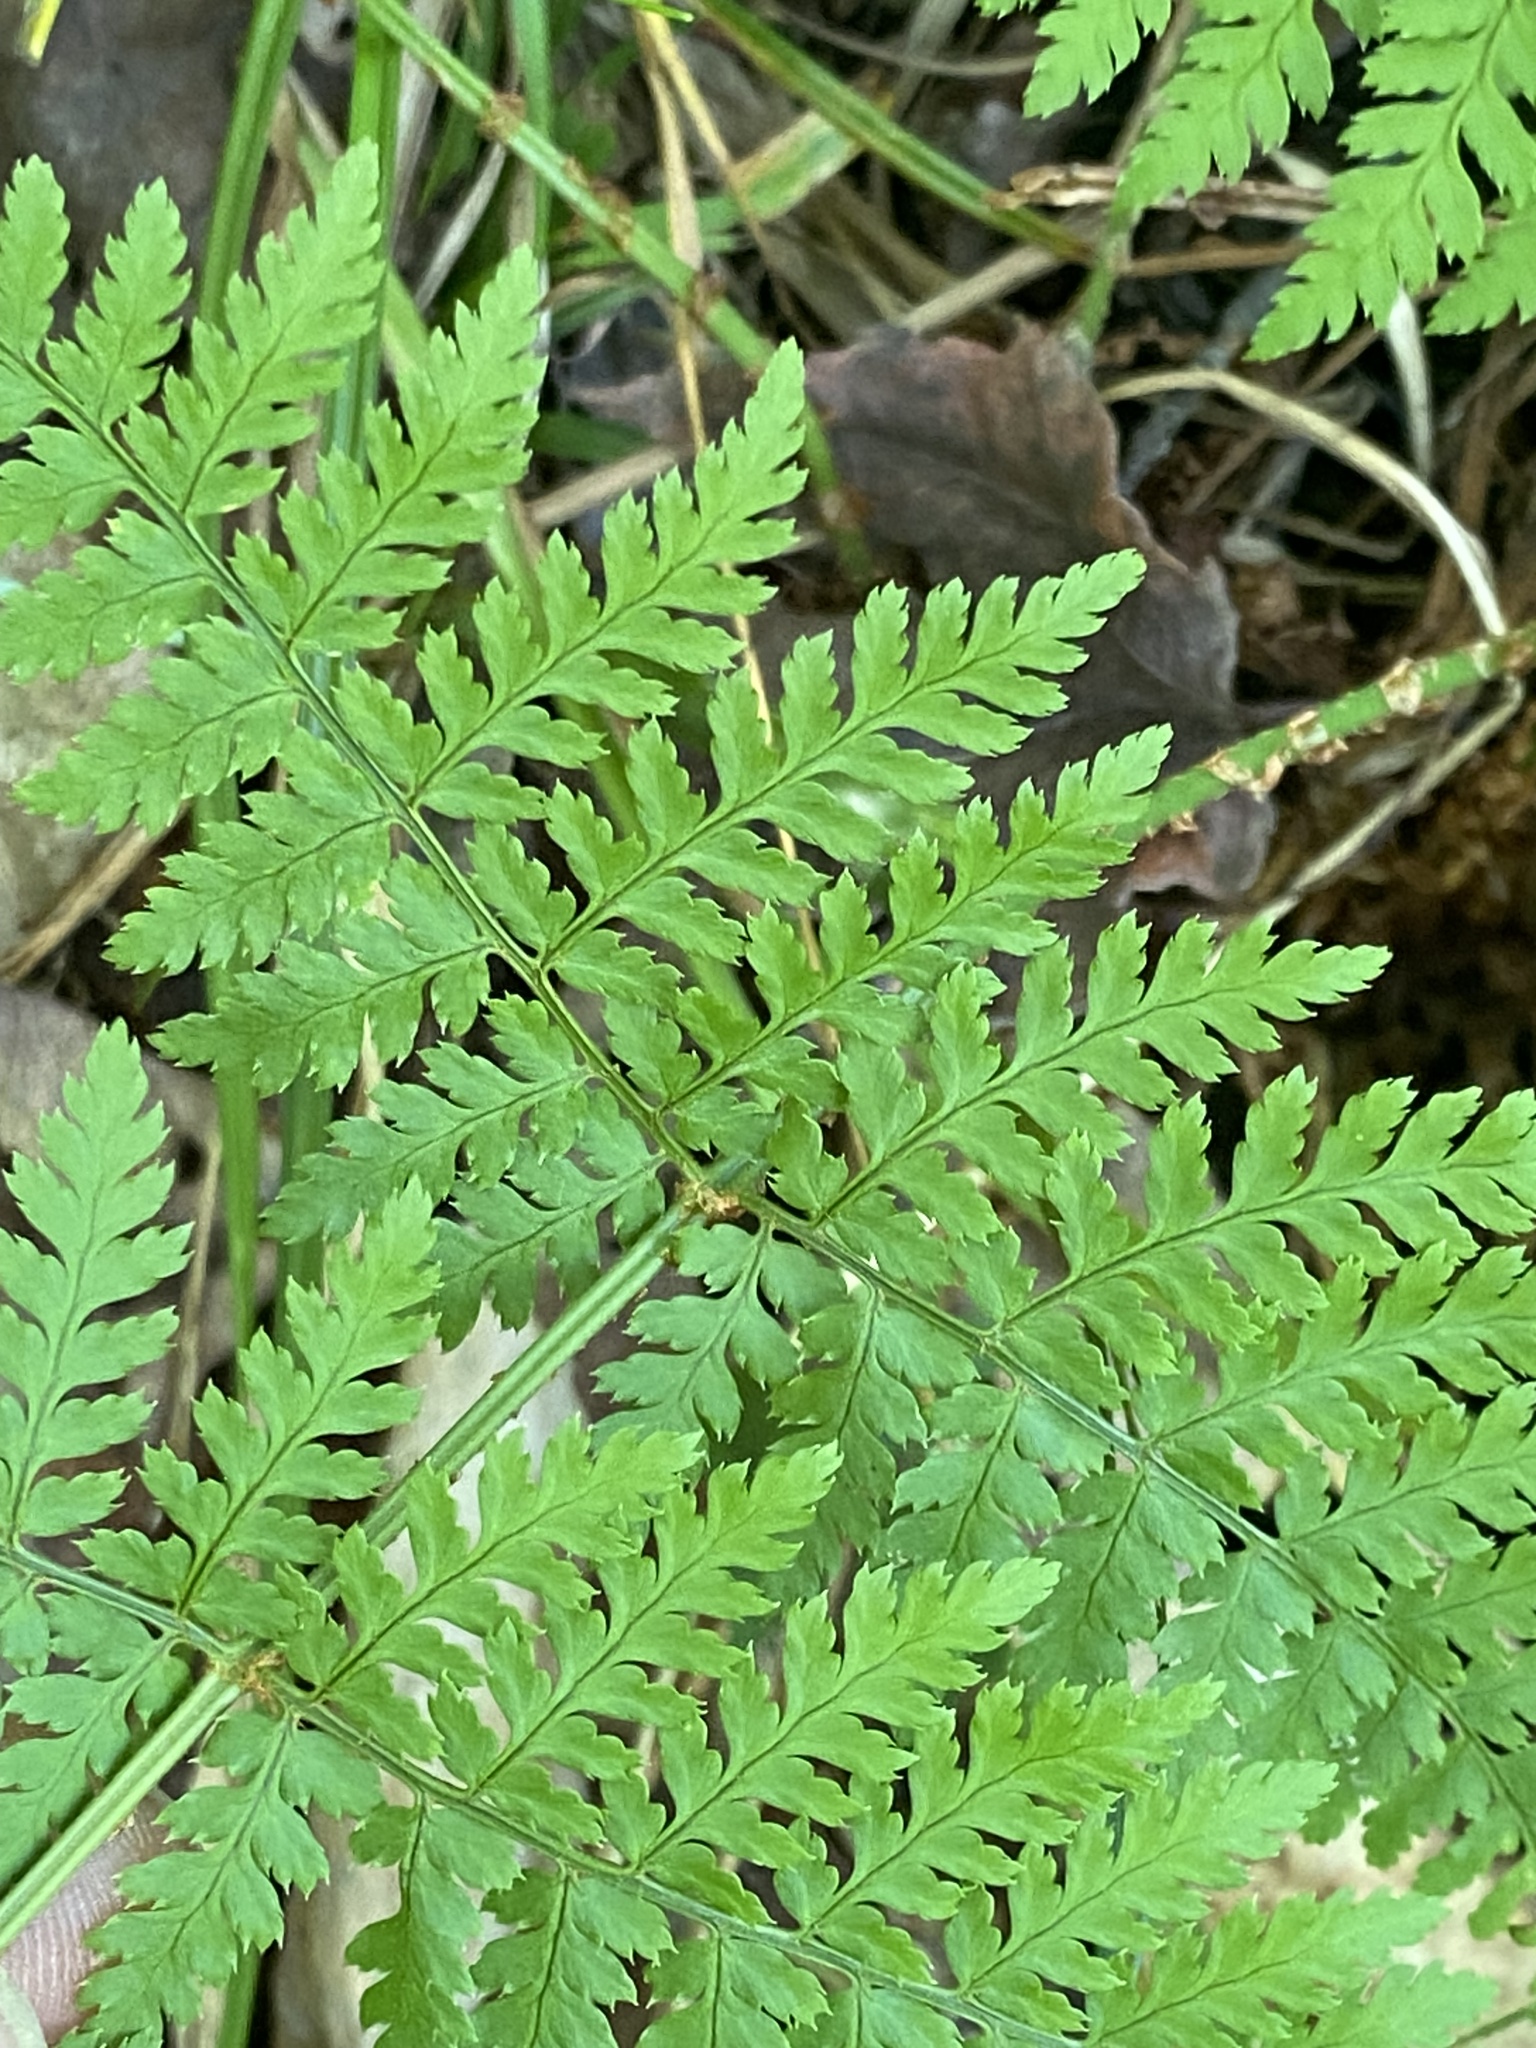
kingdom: Plantae
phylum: Tracheophyta
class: Polypodiopsida
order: Polypodiales
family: Dryopteridaceae
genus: Dryopteris
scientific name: Dryopteris intermedia
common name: Evergreen wood fern
